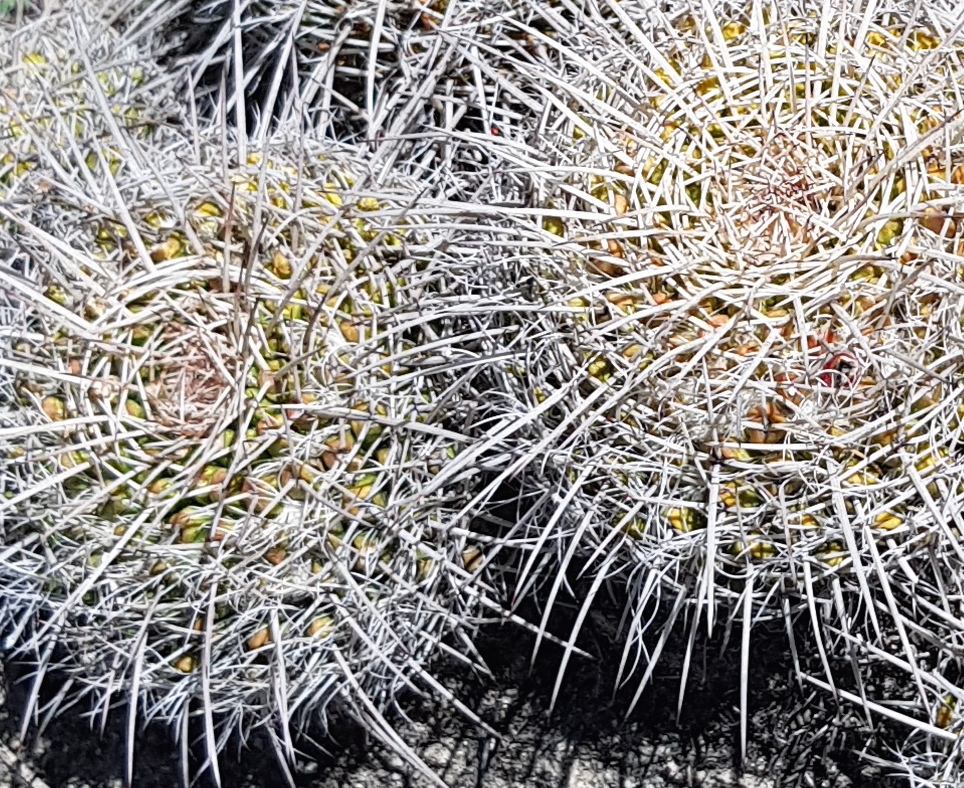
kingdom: Plantae
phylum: Tracheophyta
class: Magnoliopsida
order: Caryophyllales
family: Cactaceae
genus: Mammillaria
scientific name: Mammillaria karwinskiana
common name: Royal cross
